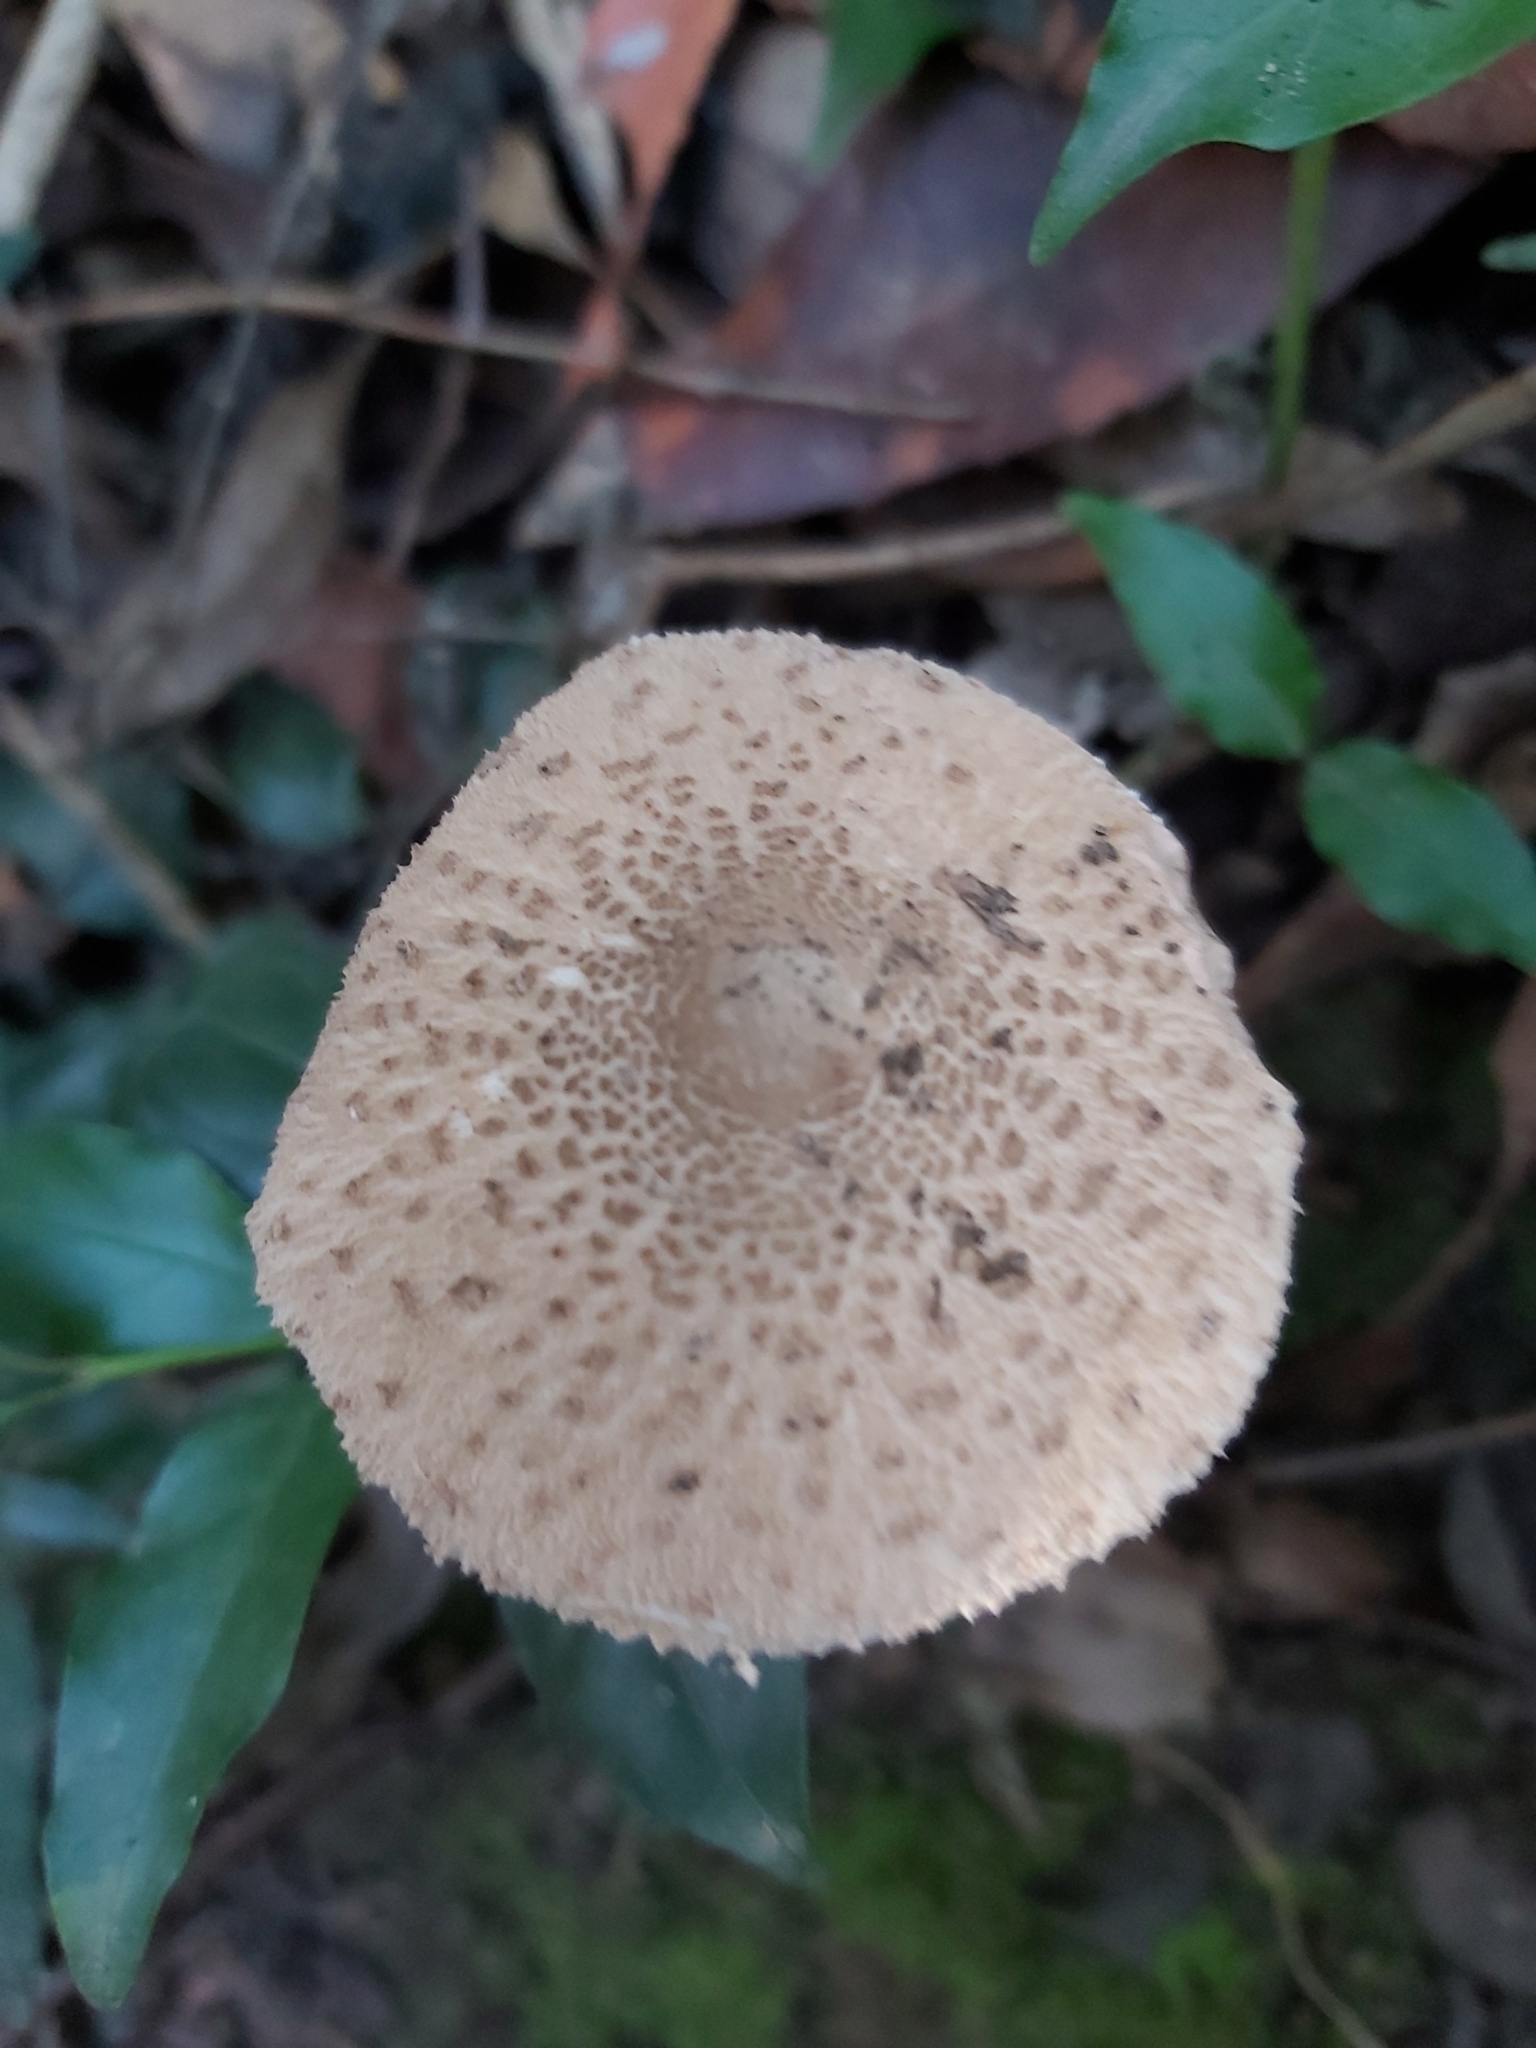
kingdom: Fungi
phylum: Basidiomycota
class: Agaricomycetes
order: Agaricales
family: Agaricaceae
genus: Macrolepiota
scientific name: Macrolepiota clelandii
